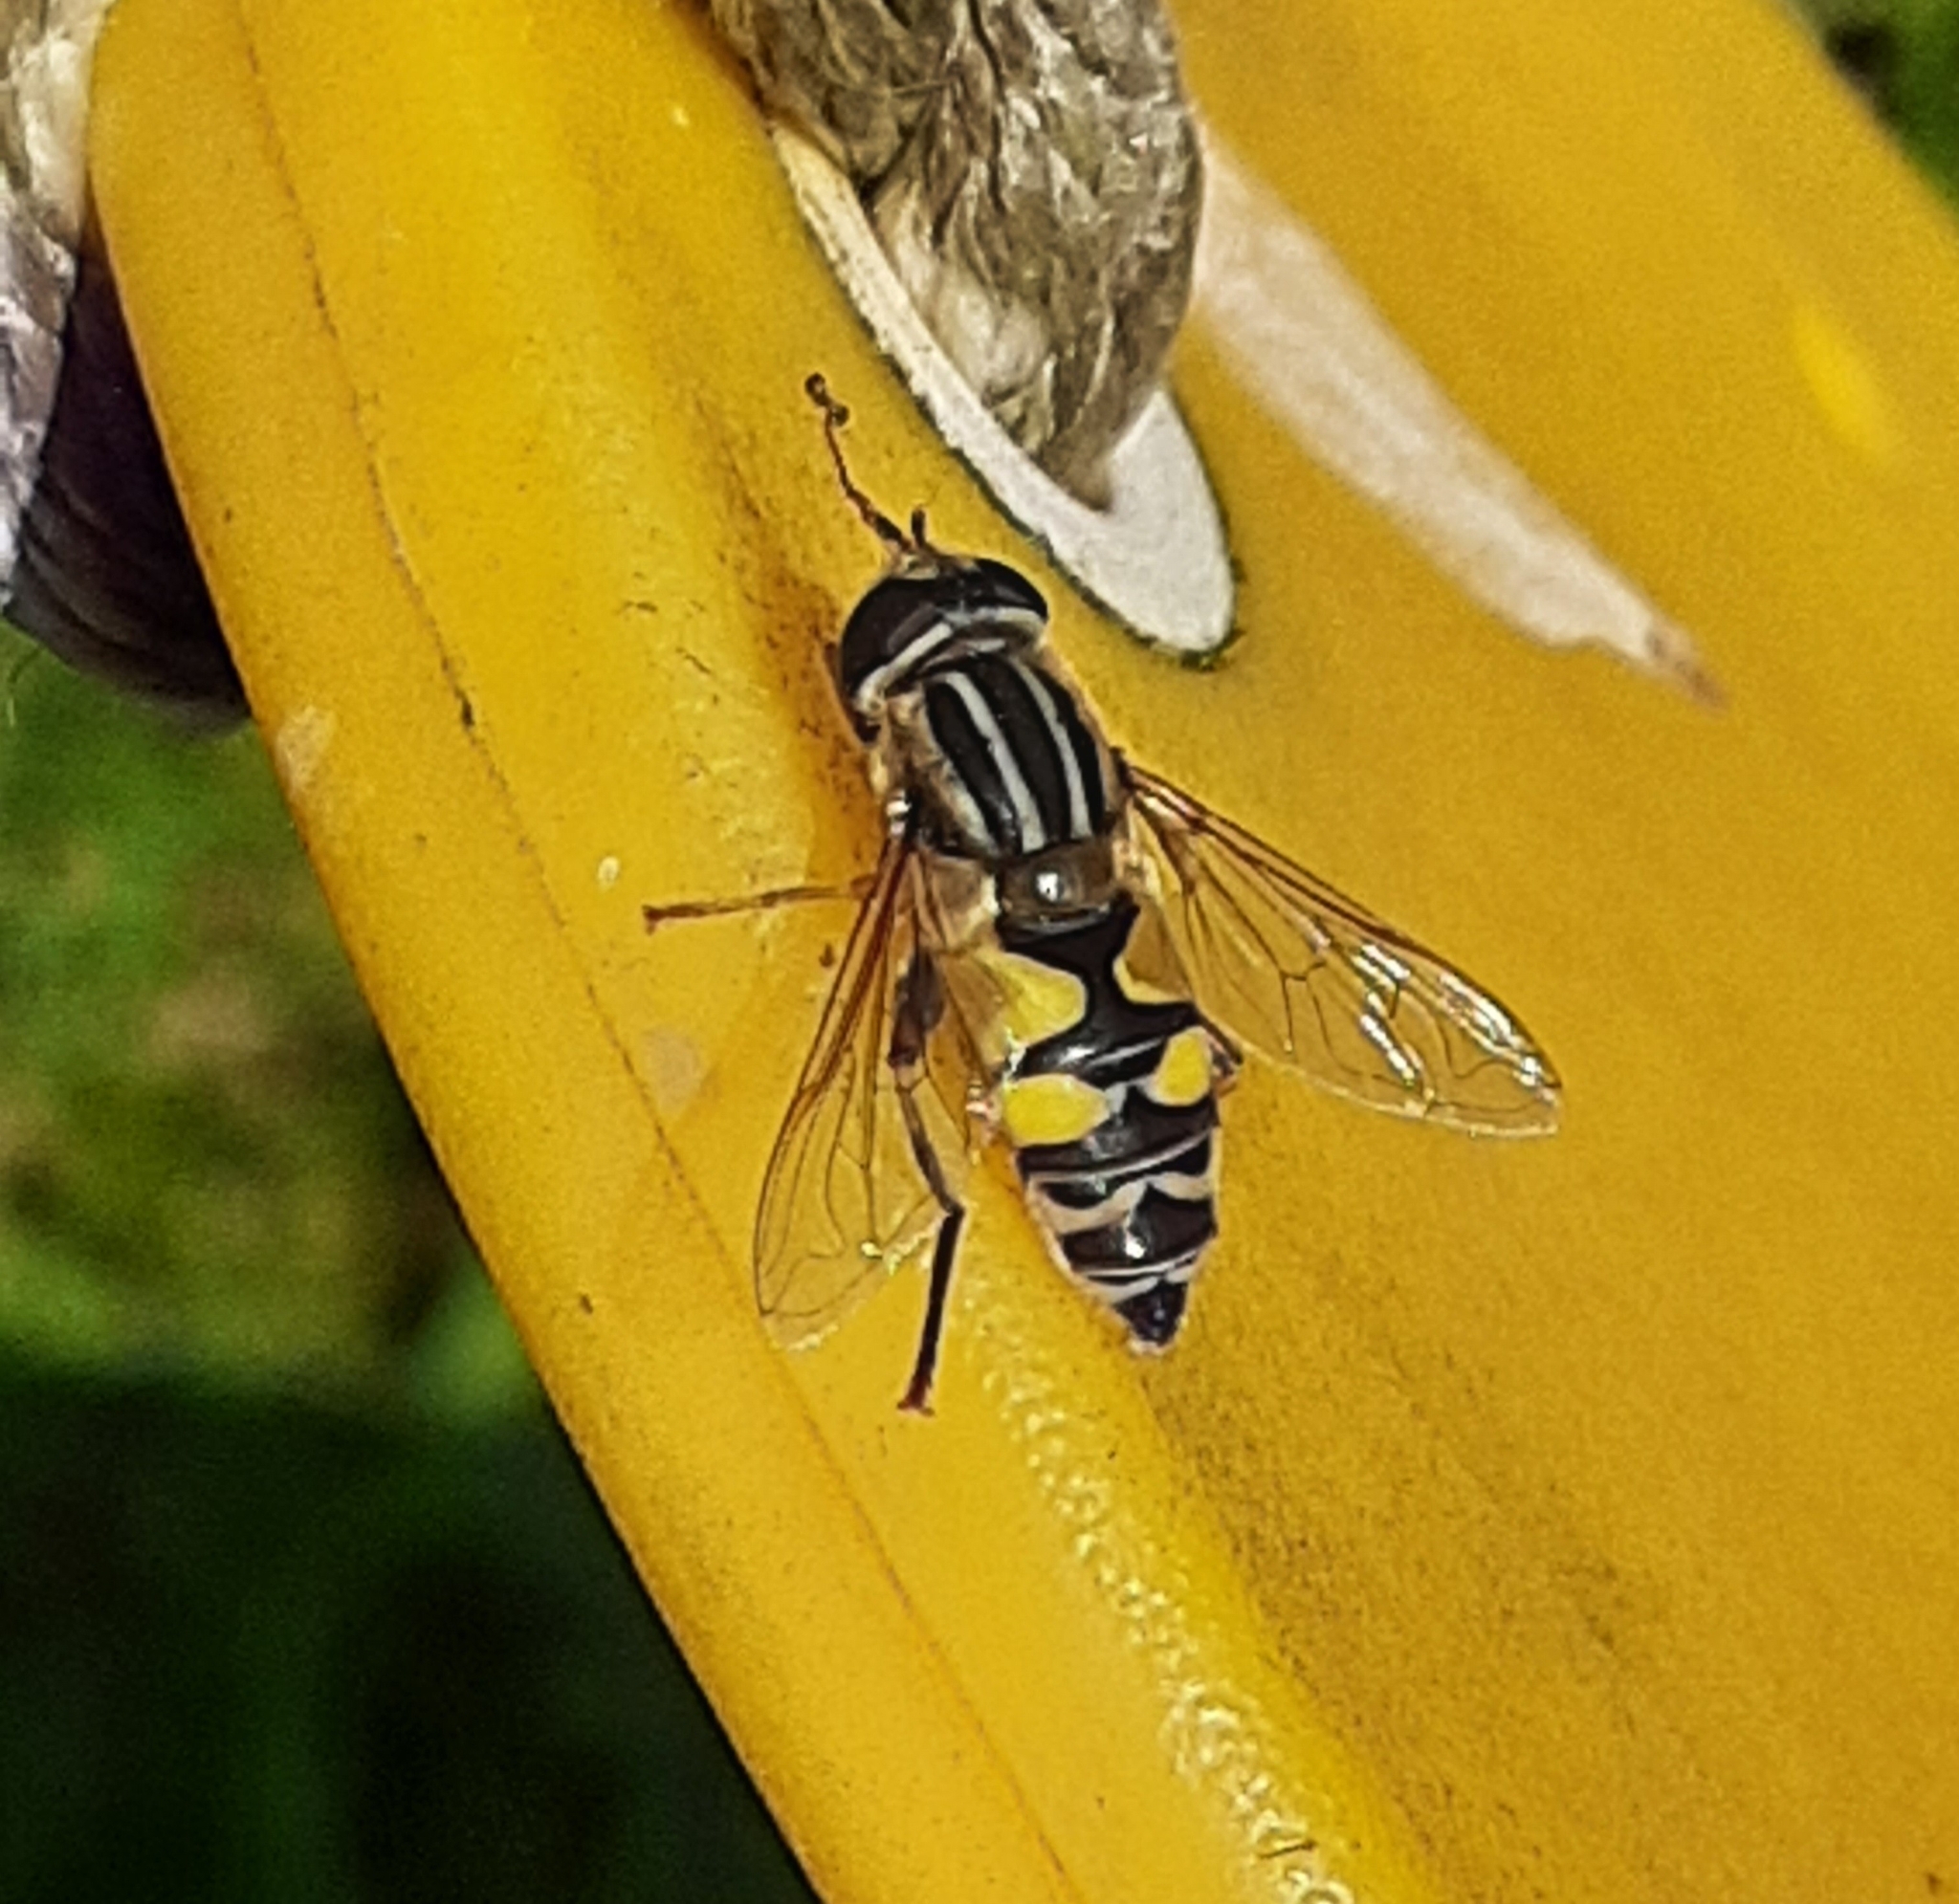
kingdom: Animalia
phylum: Arthropoda
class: Insecta
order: Diptera
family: Syrphidae
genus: Helophilus
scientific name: Helophilus trivittatus
